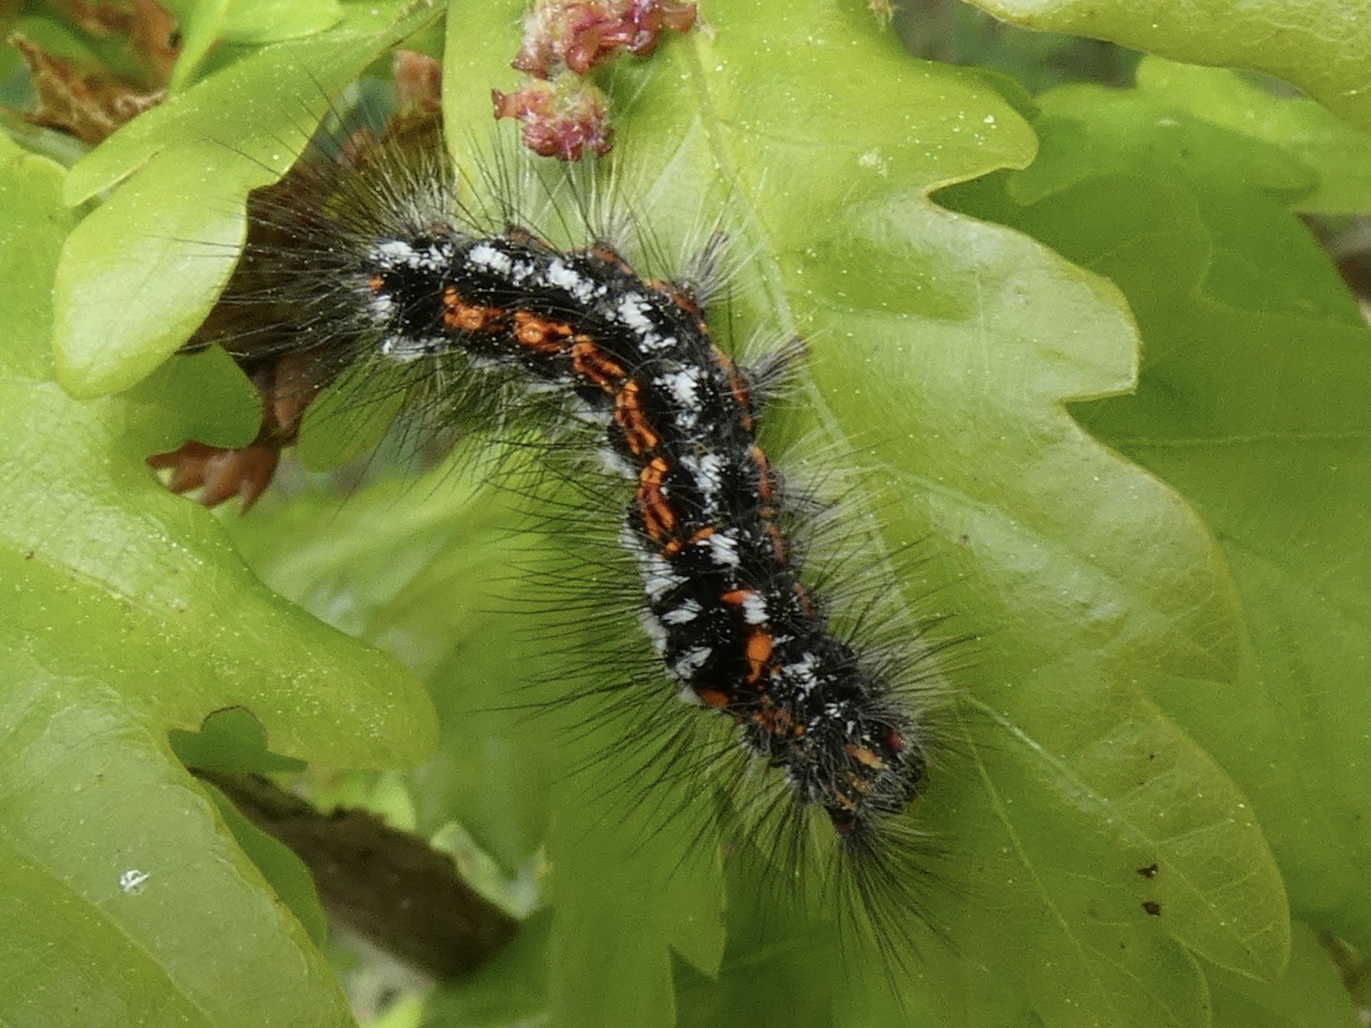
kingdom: Animalia
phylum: Arthropoda
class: Insecta
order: Lepidoptera
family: Erebidae
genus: Sphrageidus
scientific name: Sphrageidus similis
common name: Yellow-tail
